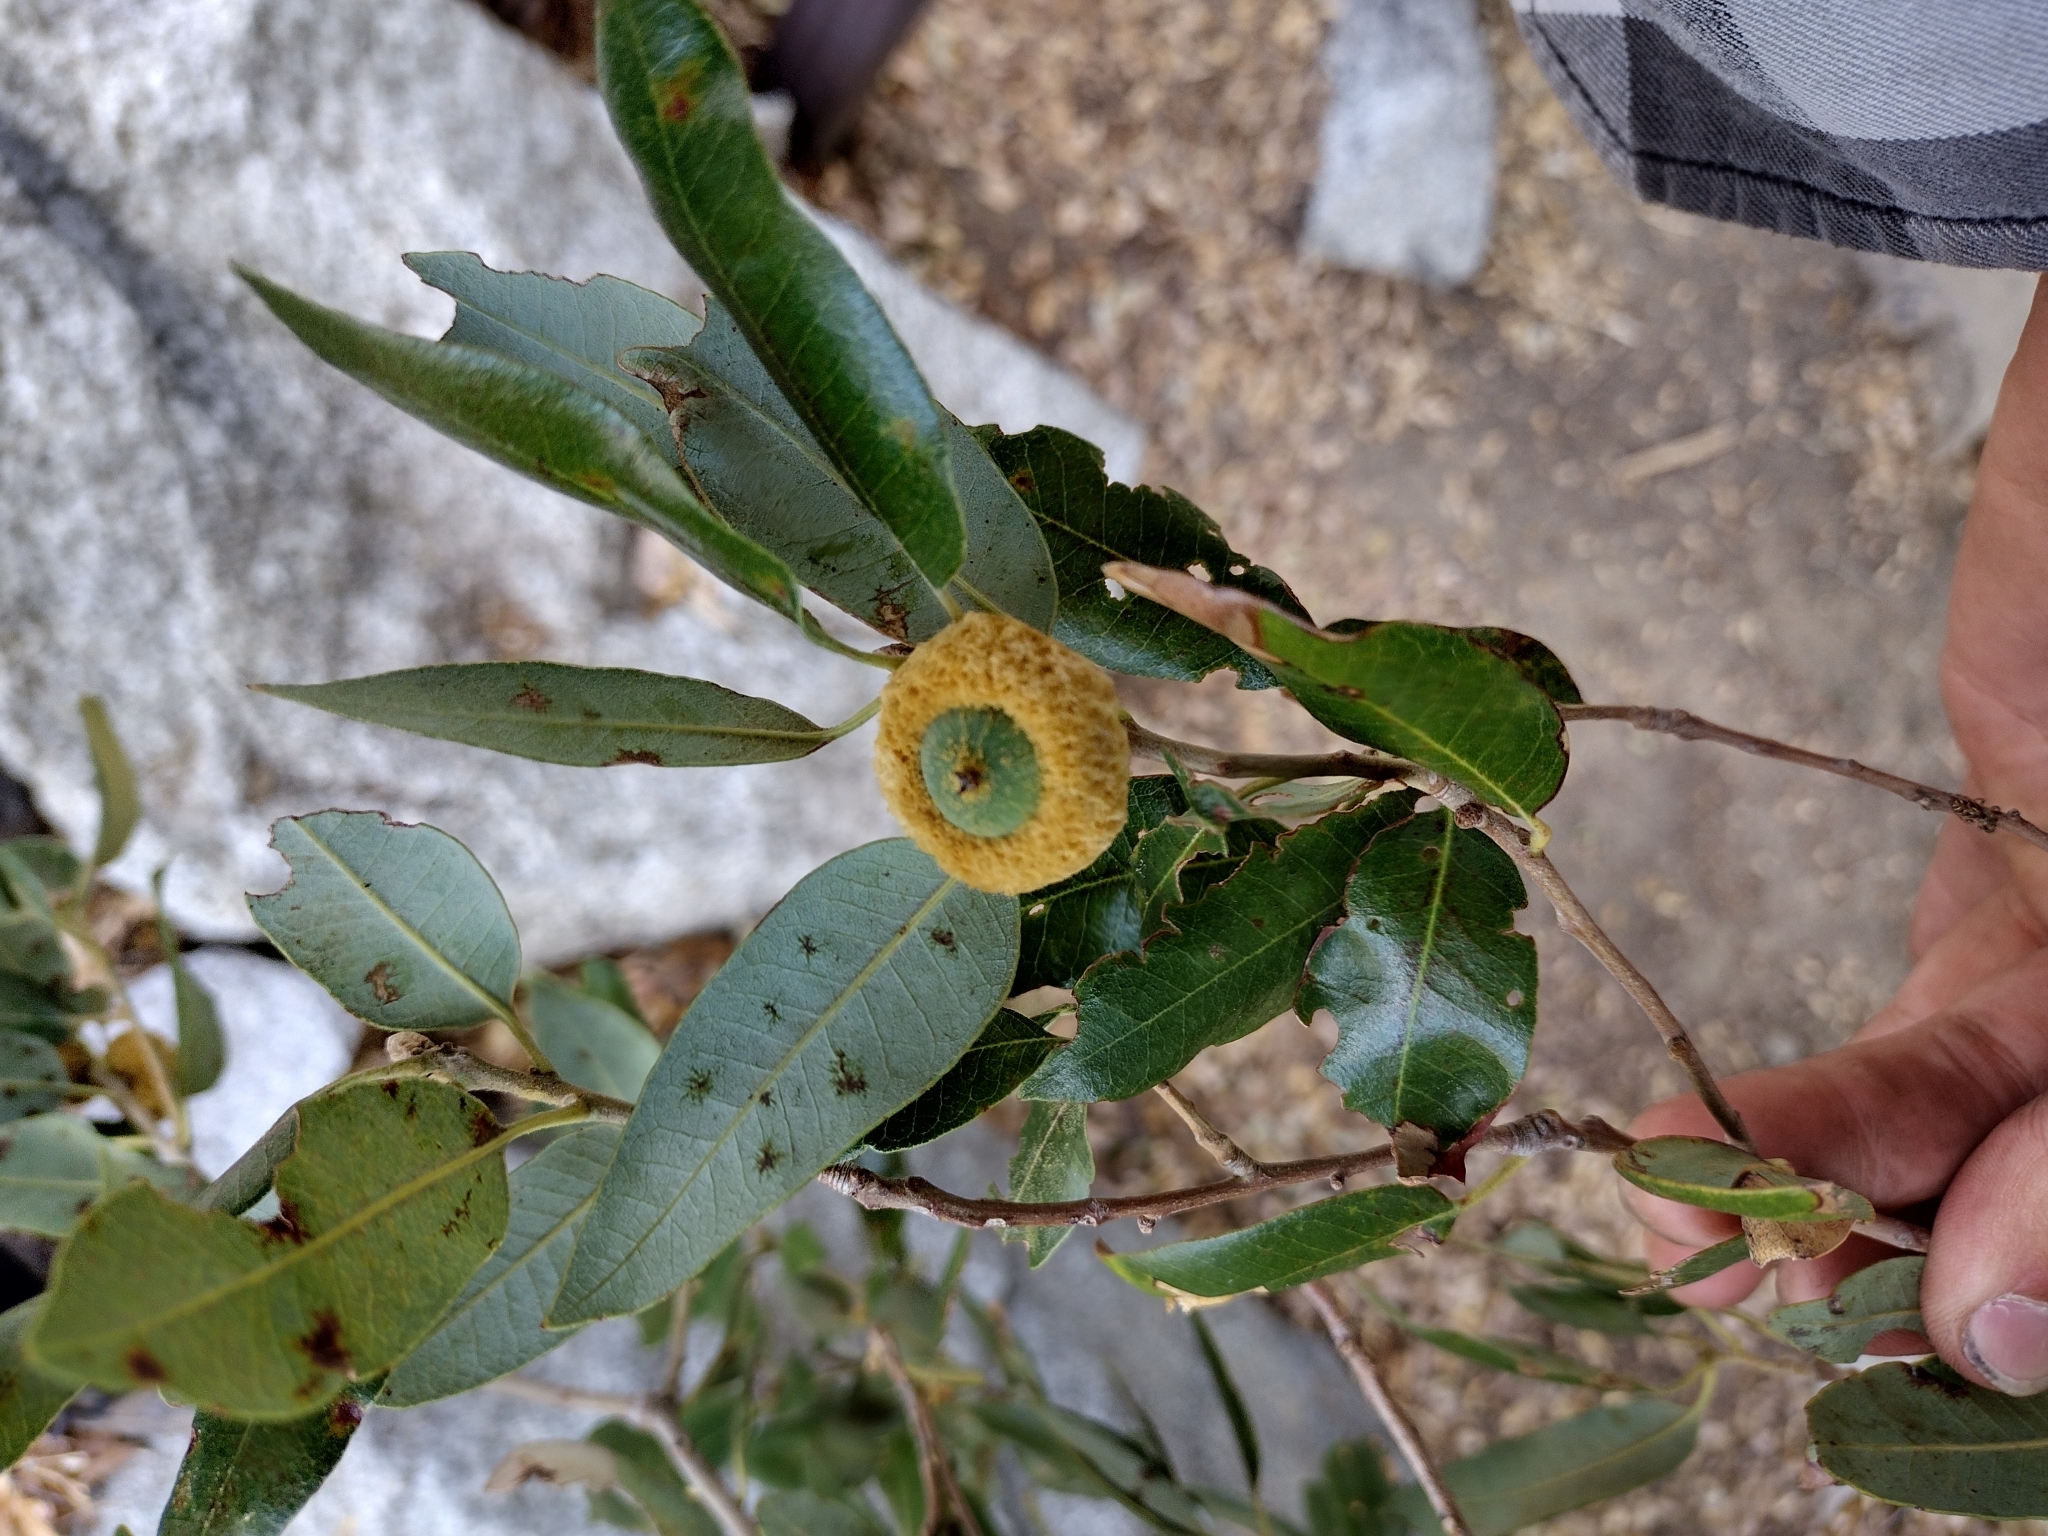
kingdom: Plantae
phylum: Tracheophyta
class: Magnoliopsida
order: Fagales
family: Fagaceae
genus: Quercus
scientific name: Quercus chrysolepis
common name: Canyon live oak
